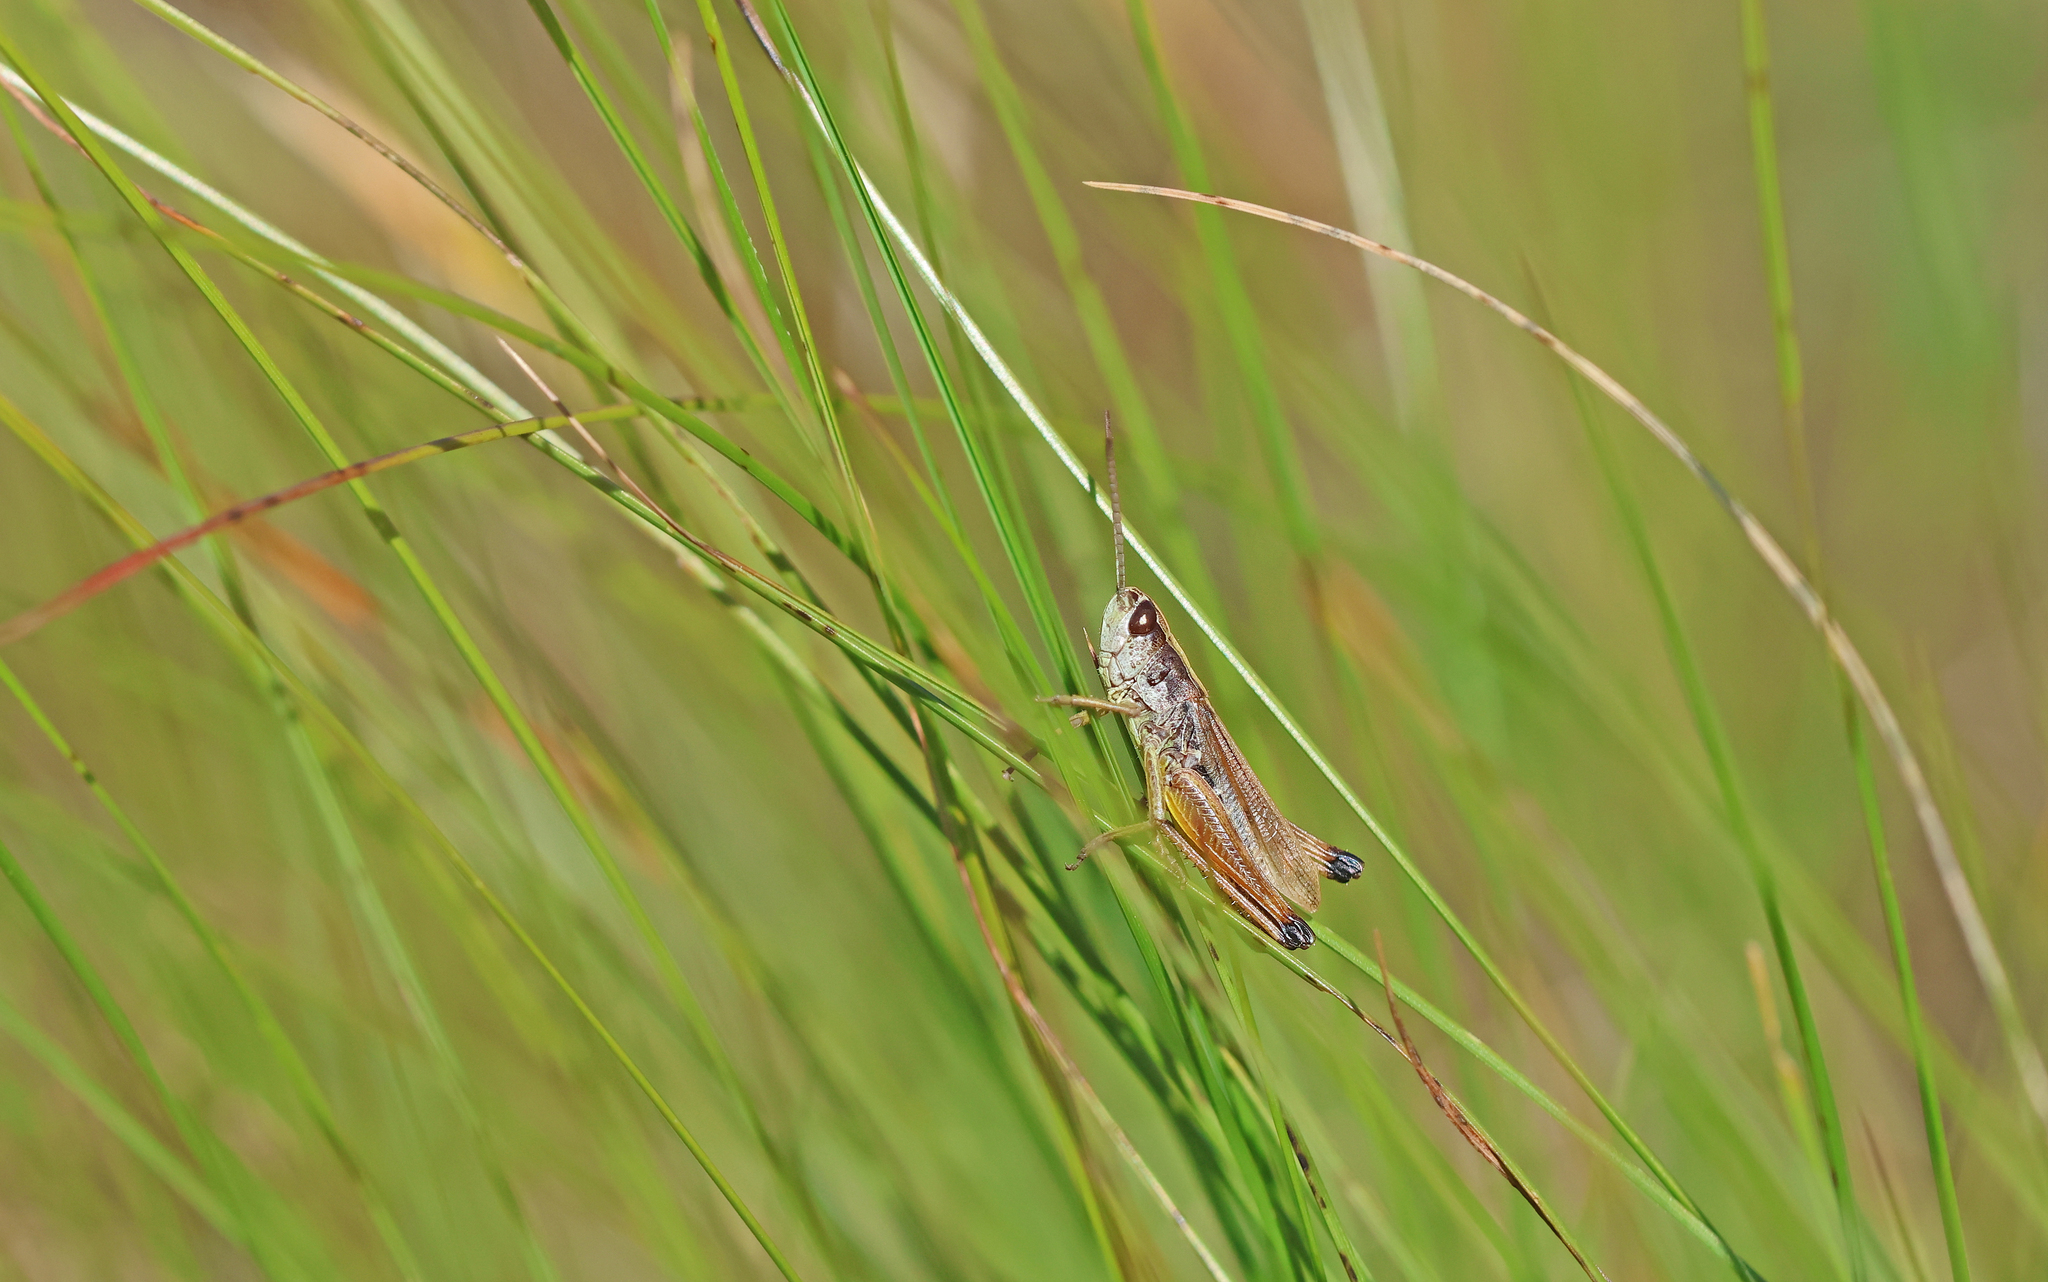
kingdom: Animalia
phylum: Arthropoda
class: Insecta
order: Orthoptera
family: Acrididae
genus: Pseudochorthippus
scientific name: Pseudochorthippus parallelus
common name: Meadow grasshopper
